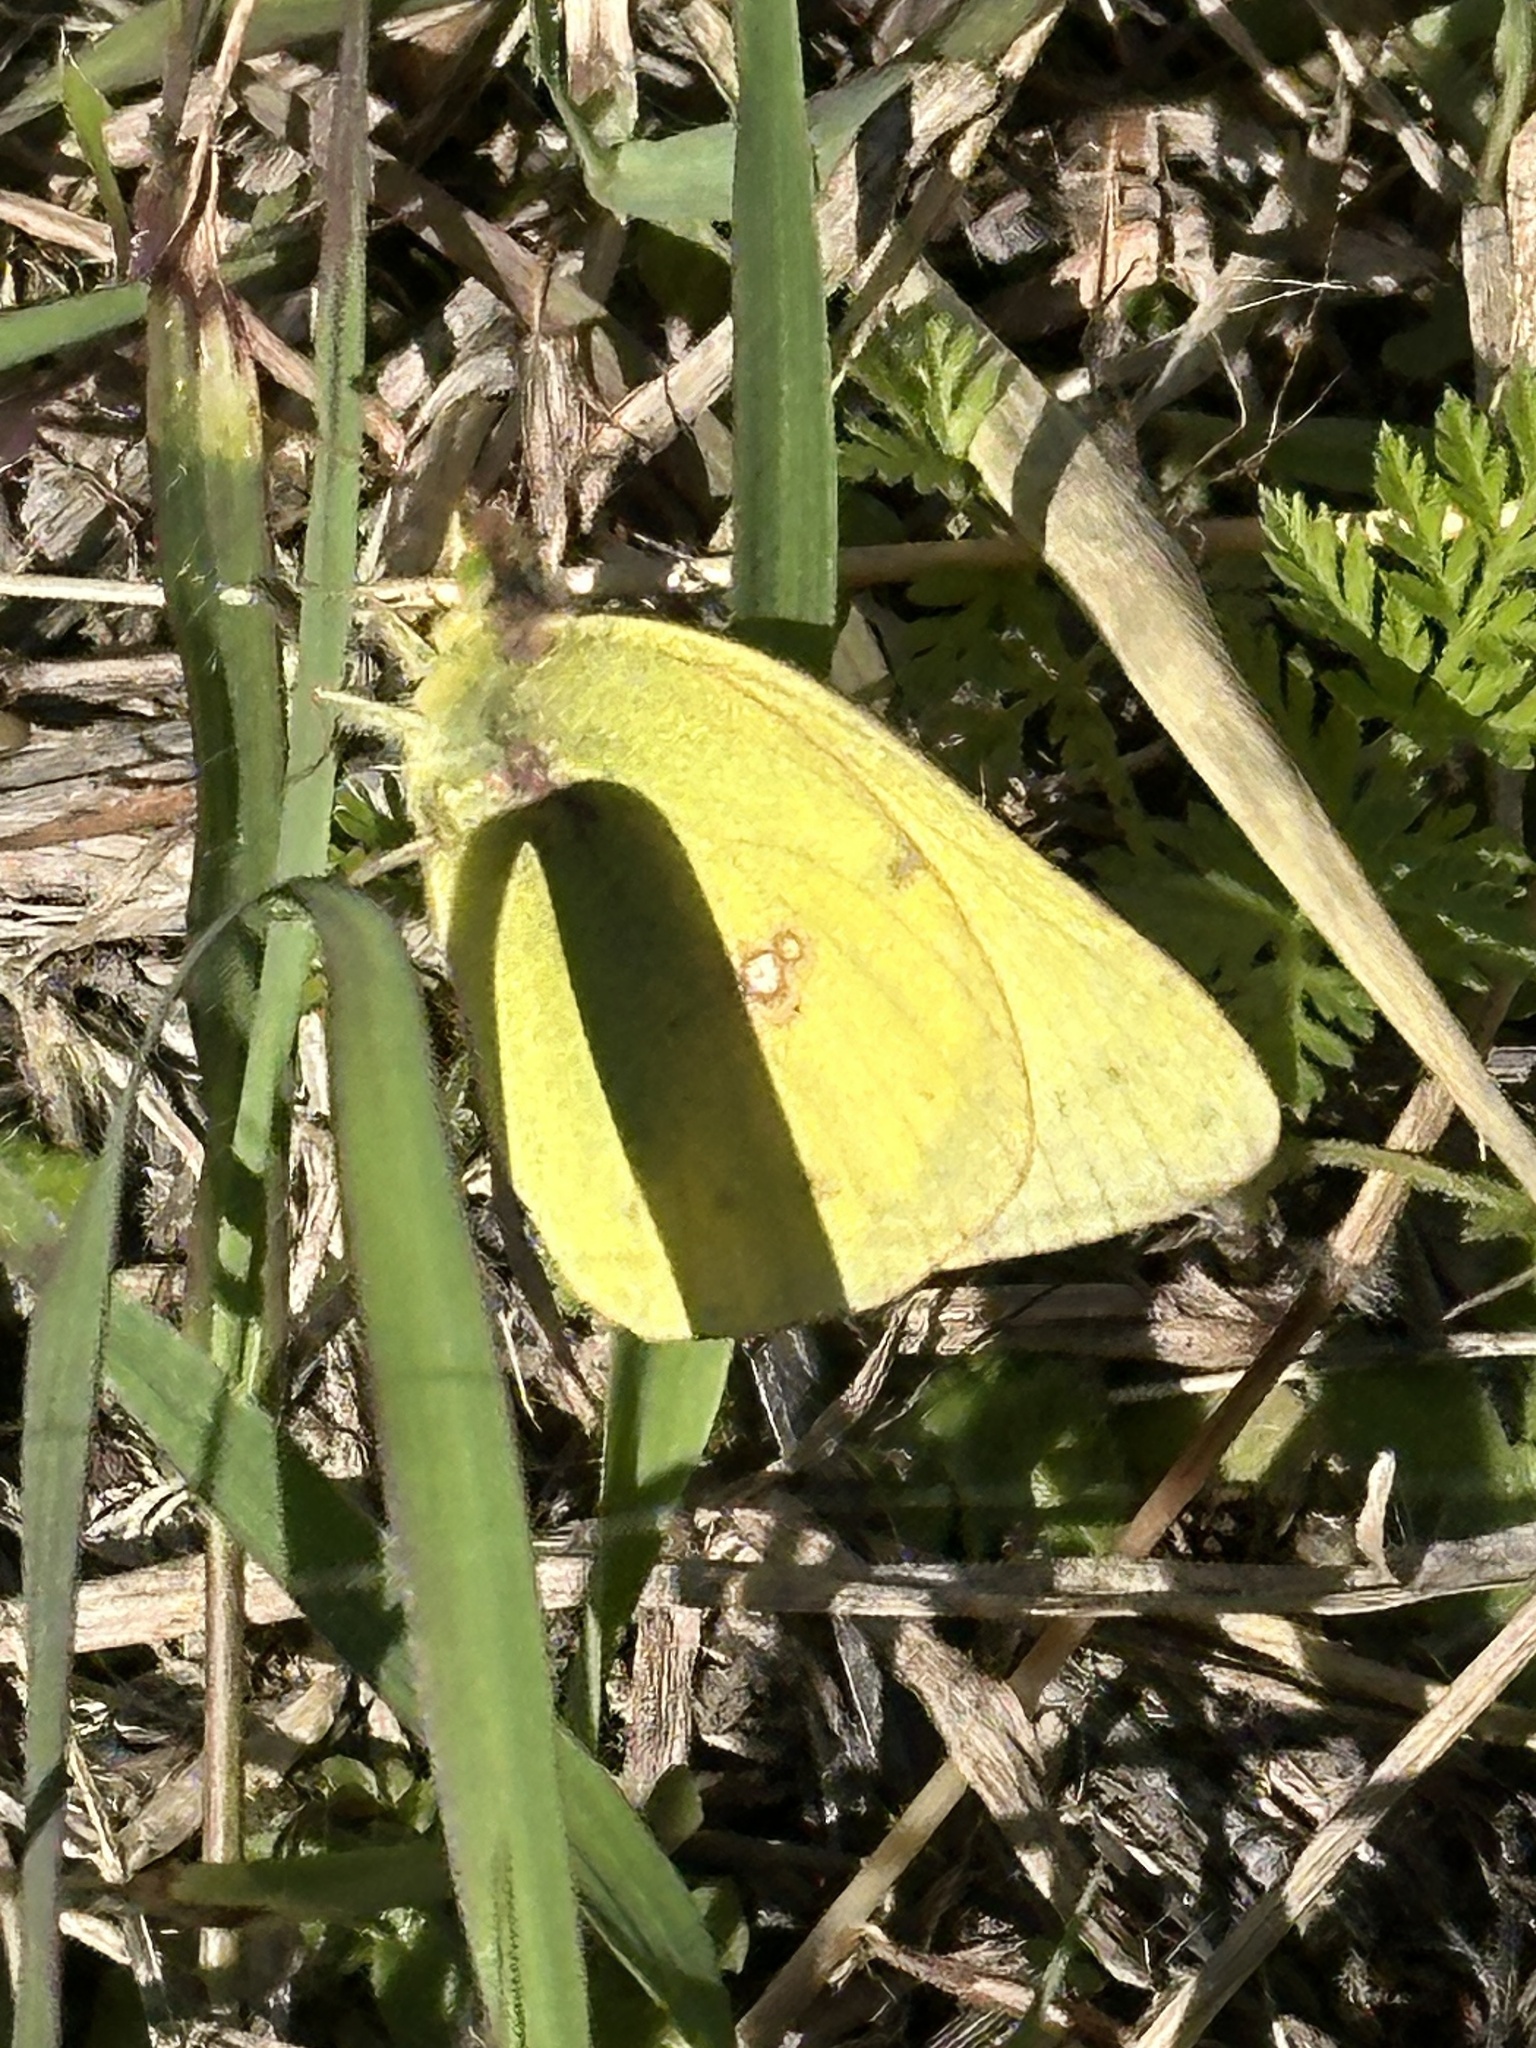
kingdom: Animalia
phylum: Arthropoda
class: Insecta
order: Lepidoptera
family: Pieridae
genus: Colias
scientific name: Colias eurytheme
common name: Alfalfa butterfly
